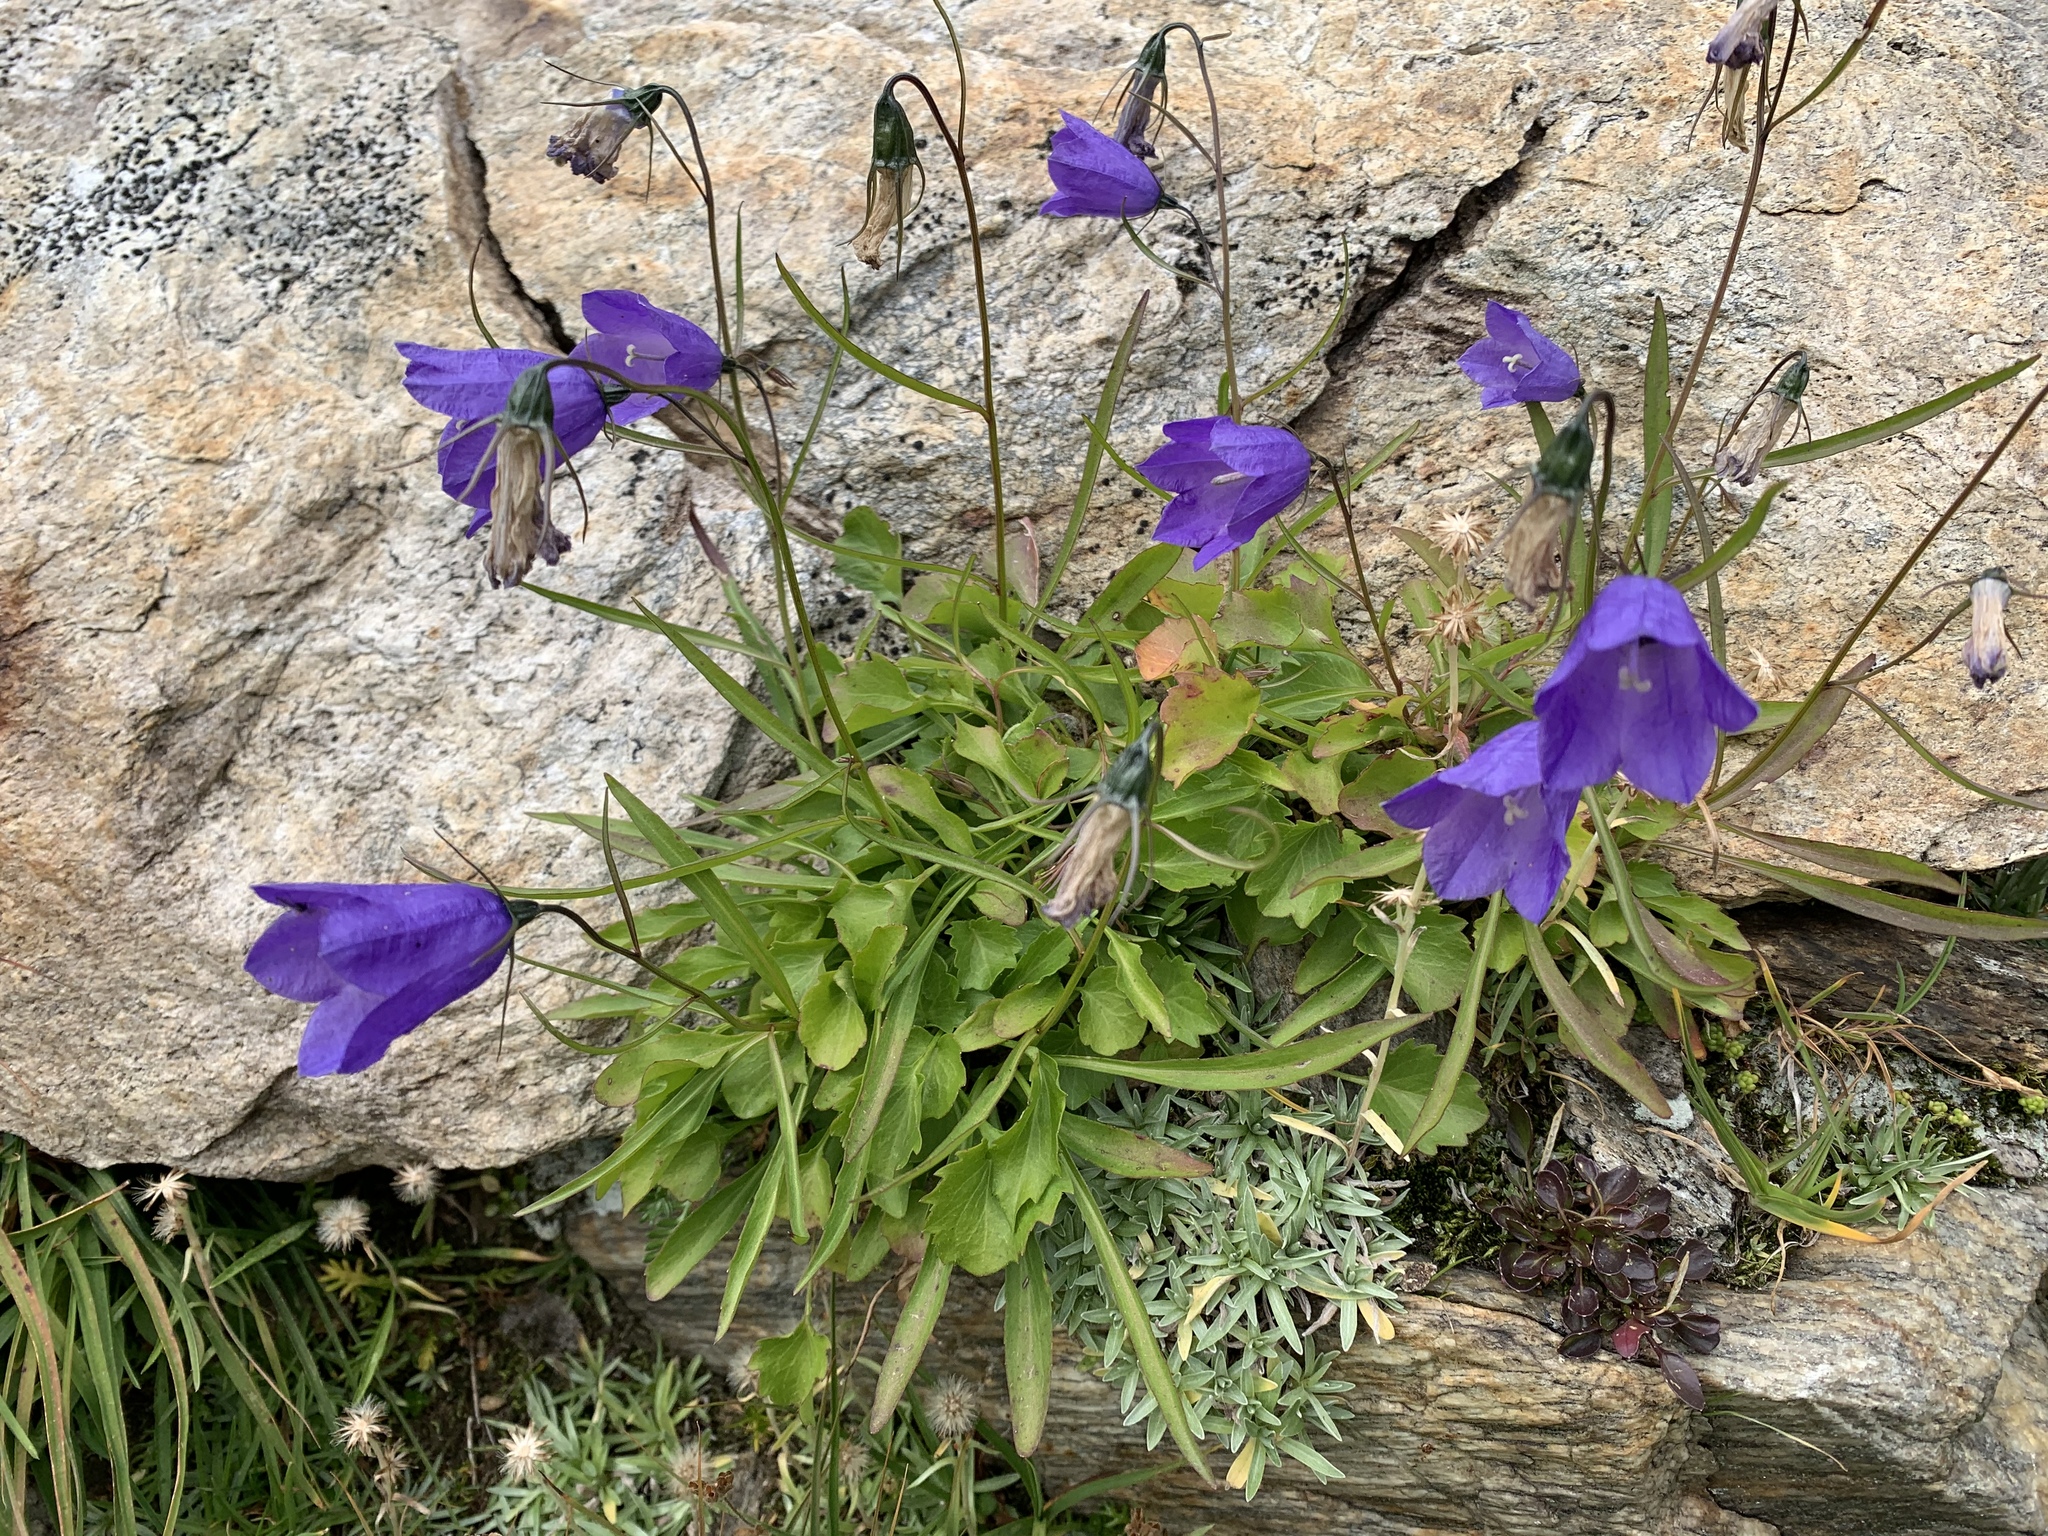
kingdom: Plantae
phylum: Tracheophyta
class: Magnoliopsida
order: Asterales
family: Campanulaceae
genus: Campanula
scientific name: Campanula scheuchzeri
